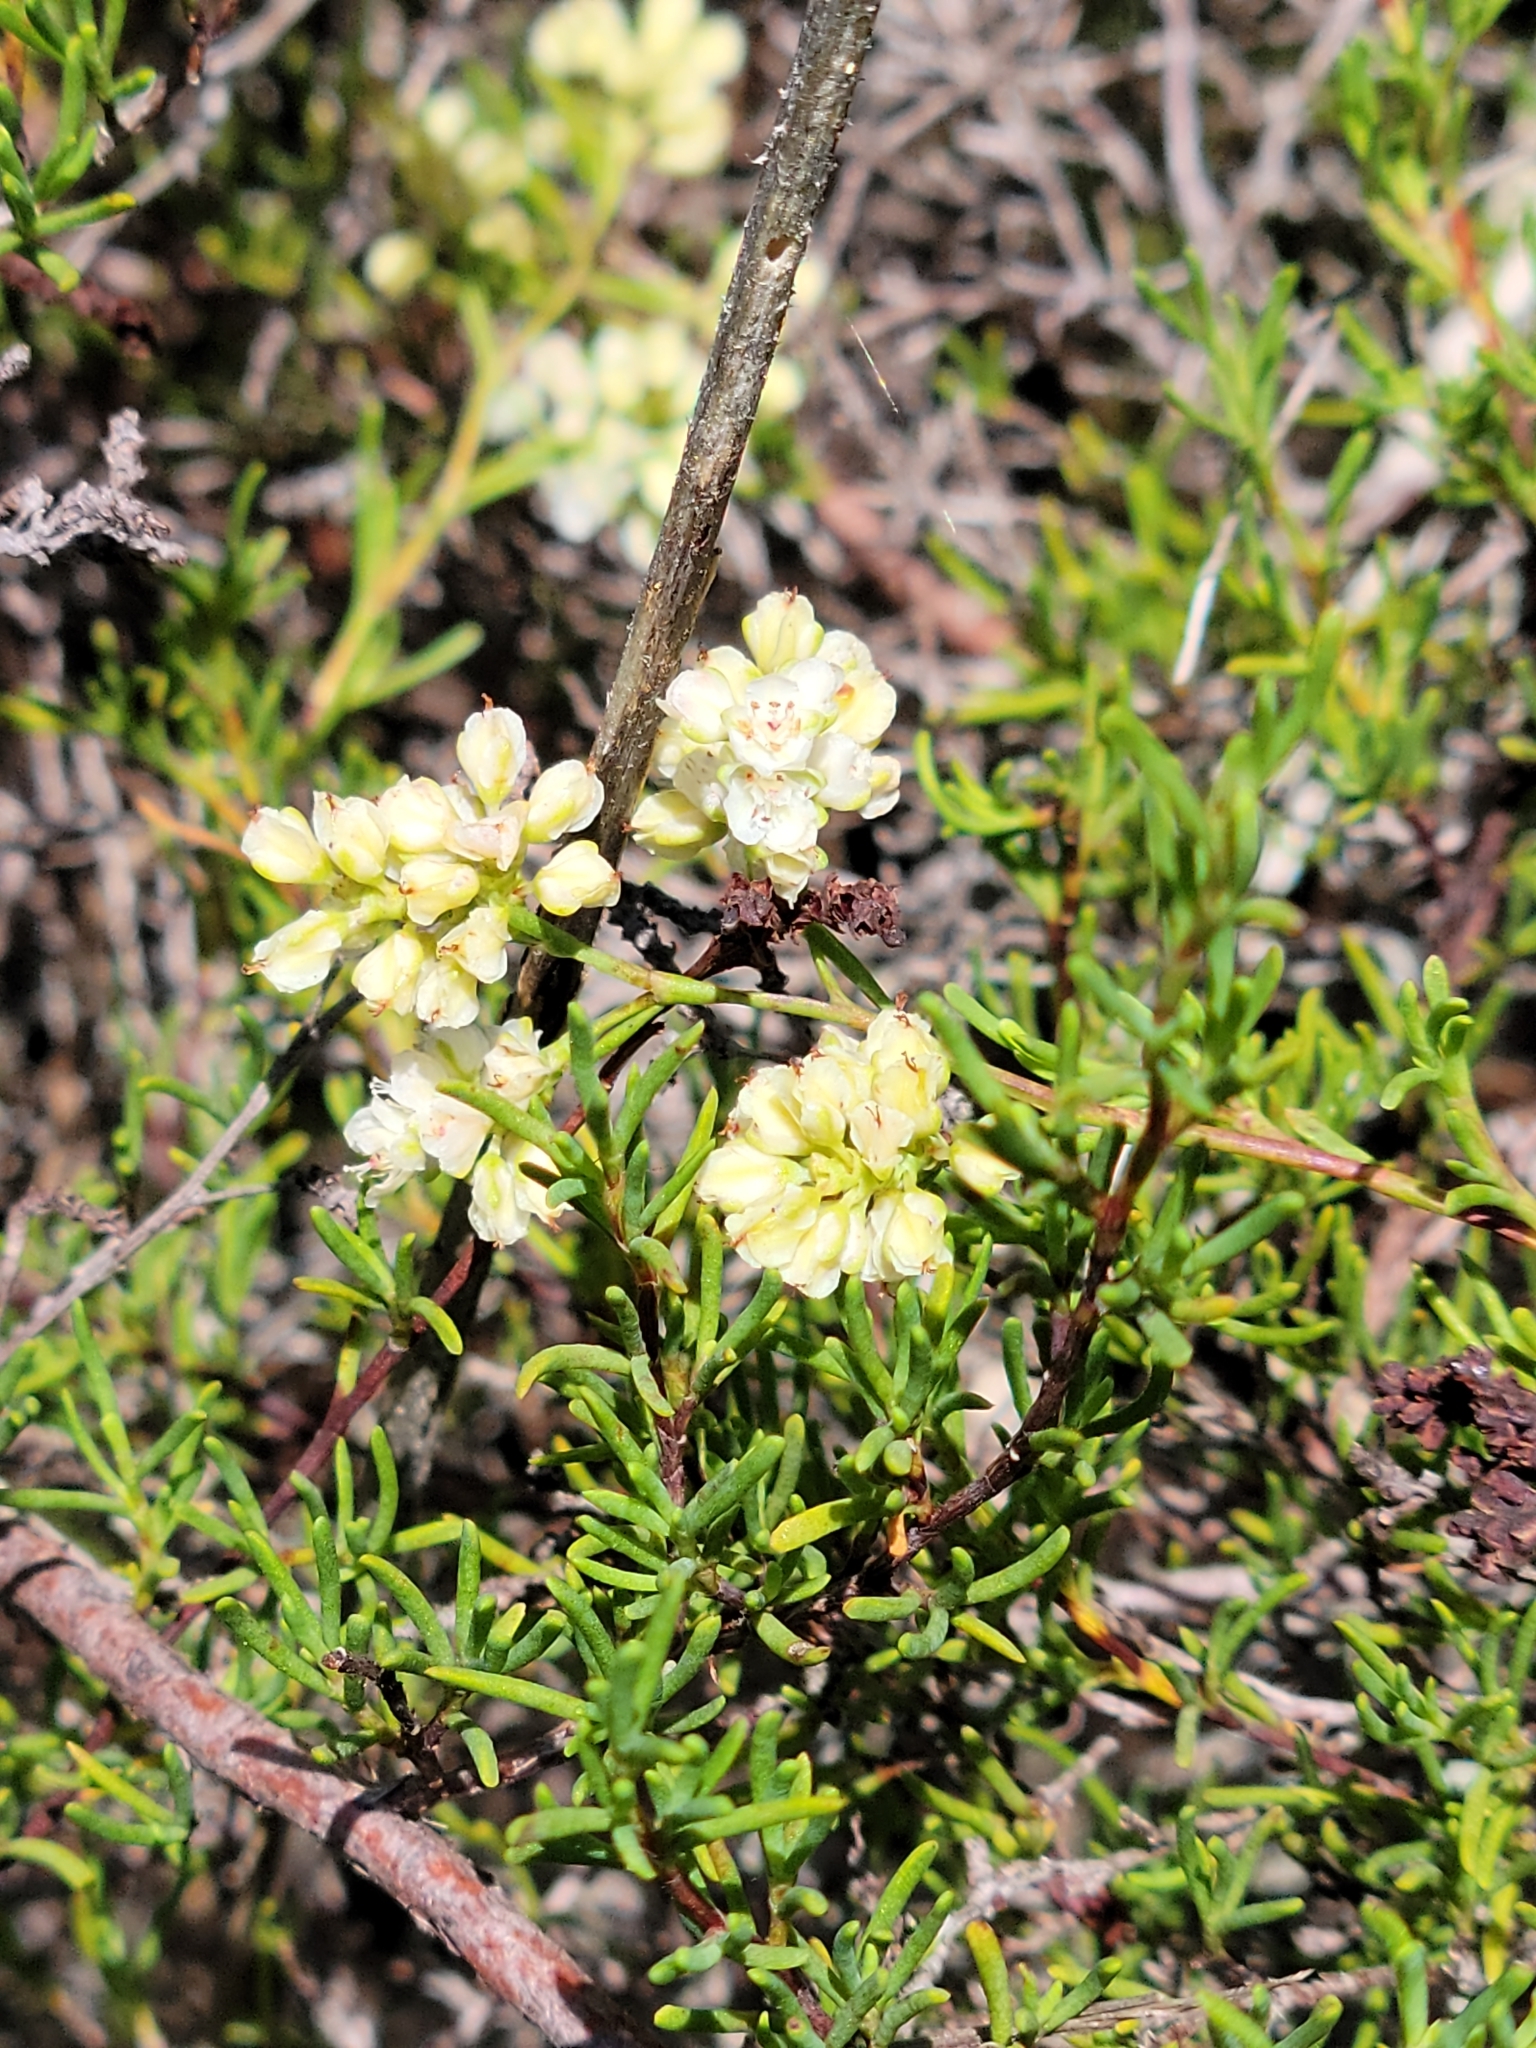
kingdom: Plantae
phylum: Tracheophyta
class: Magnoliopsida
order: Caryophyllales
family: Polygonaceae
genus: Polygonella
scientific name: Polygonella myriophylla
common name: Sandlace
